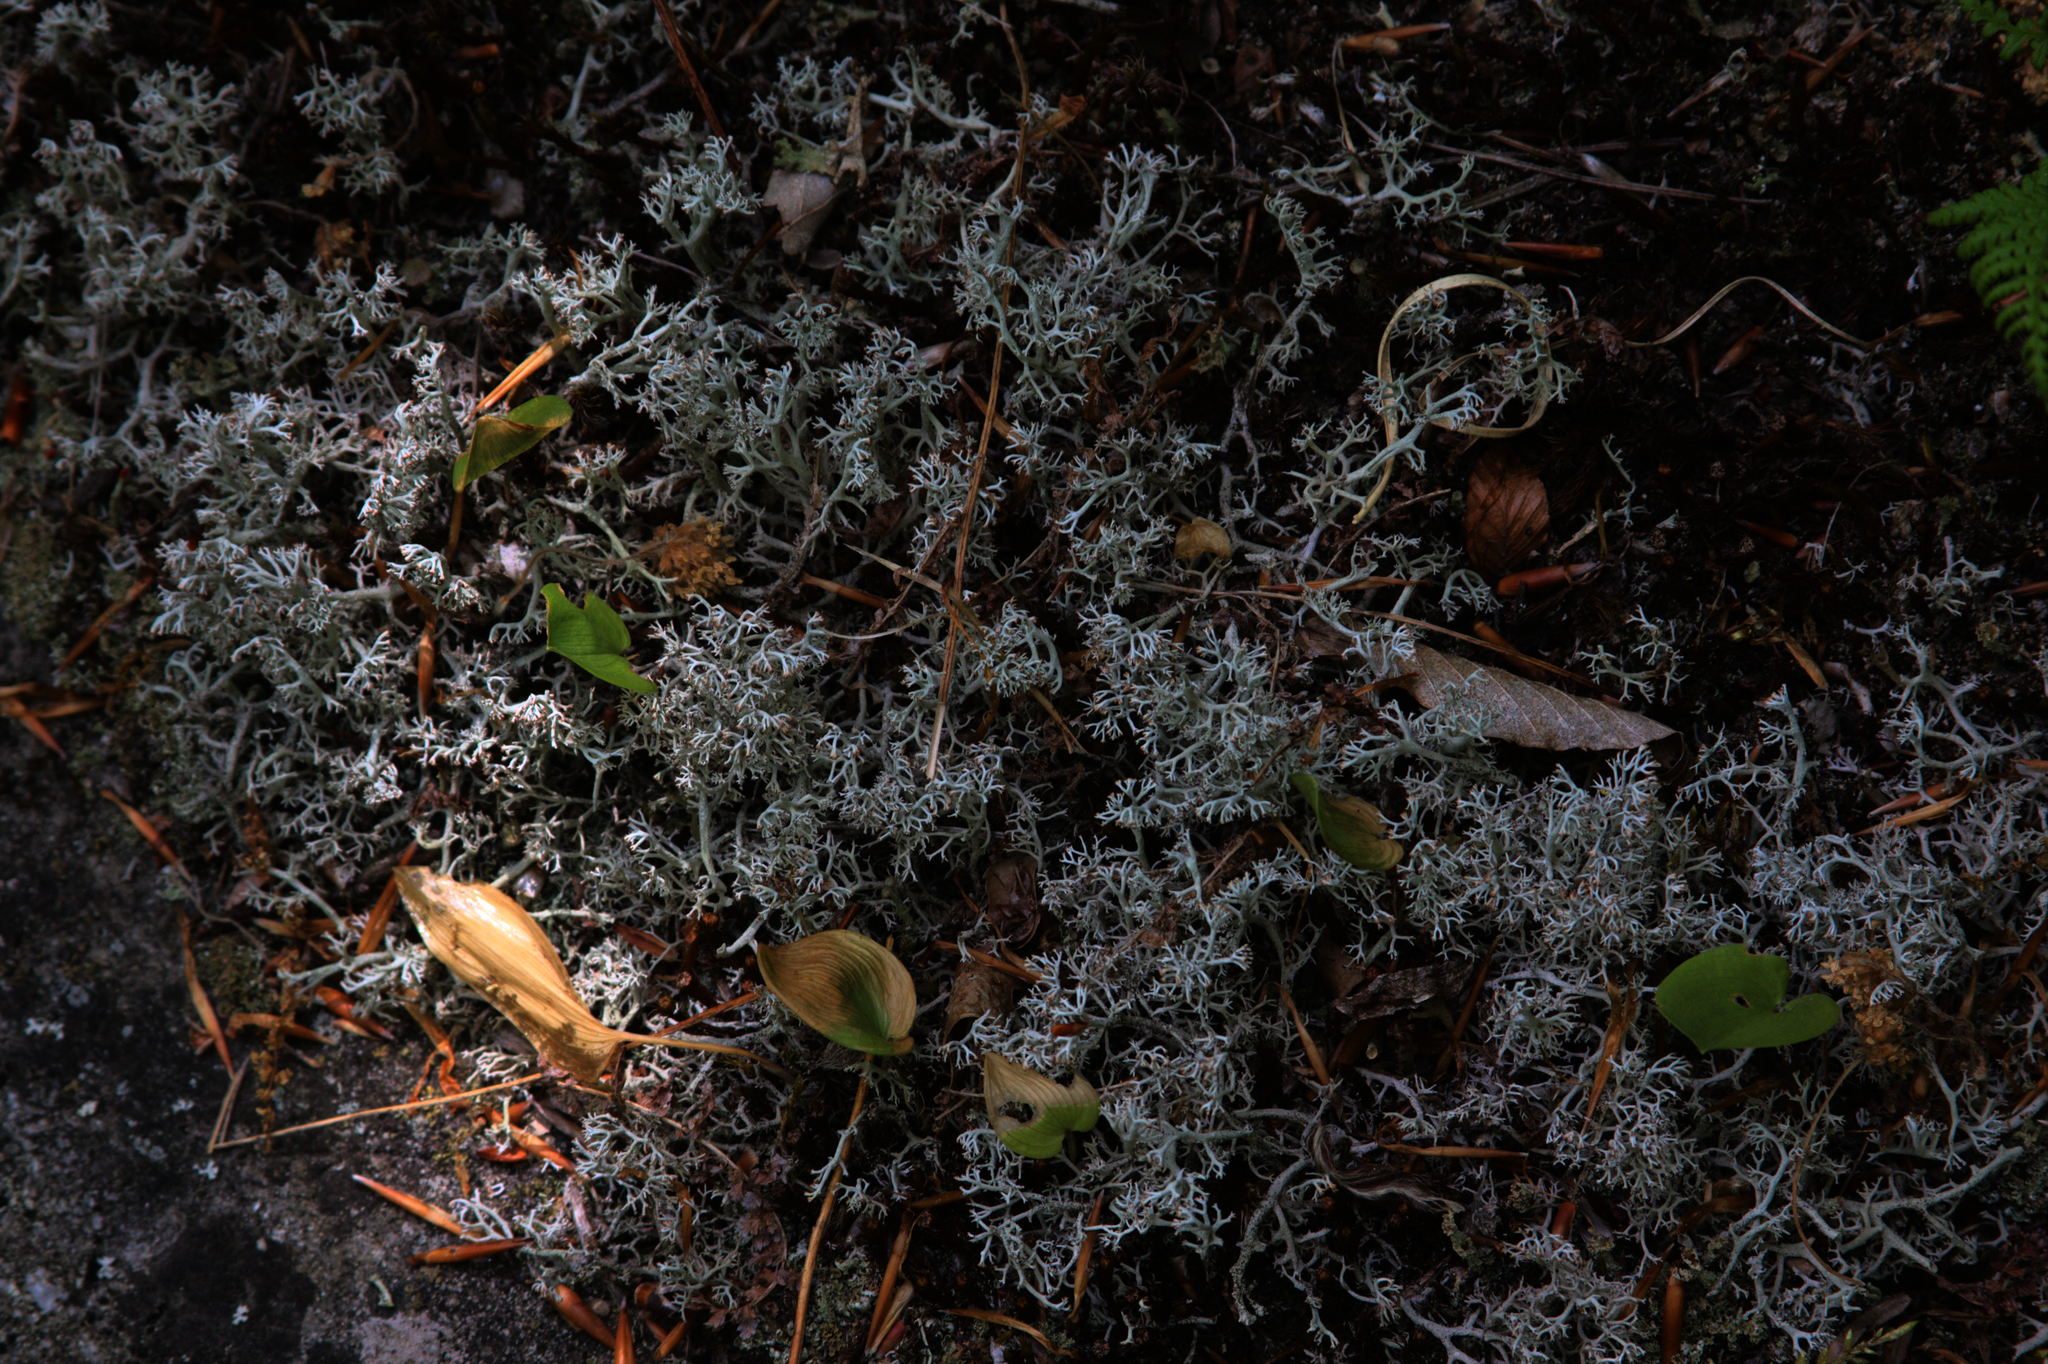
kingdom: Plantae
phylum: Tracheophyta
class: Liliopsida
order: Asparagales
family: Asparagaceae
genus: Maianthemum
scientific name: Maianthemum canadense
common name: False lily-of-the-valley
